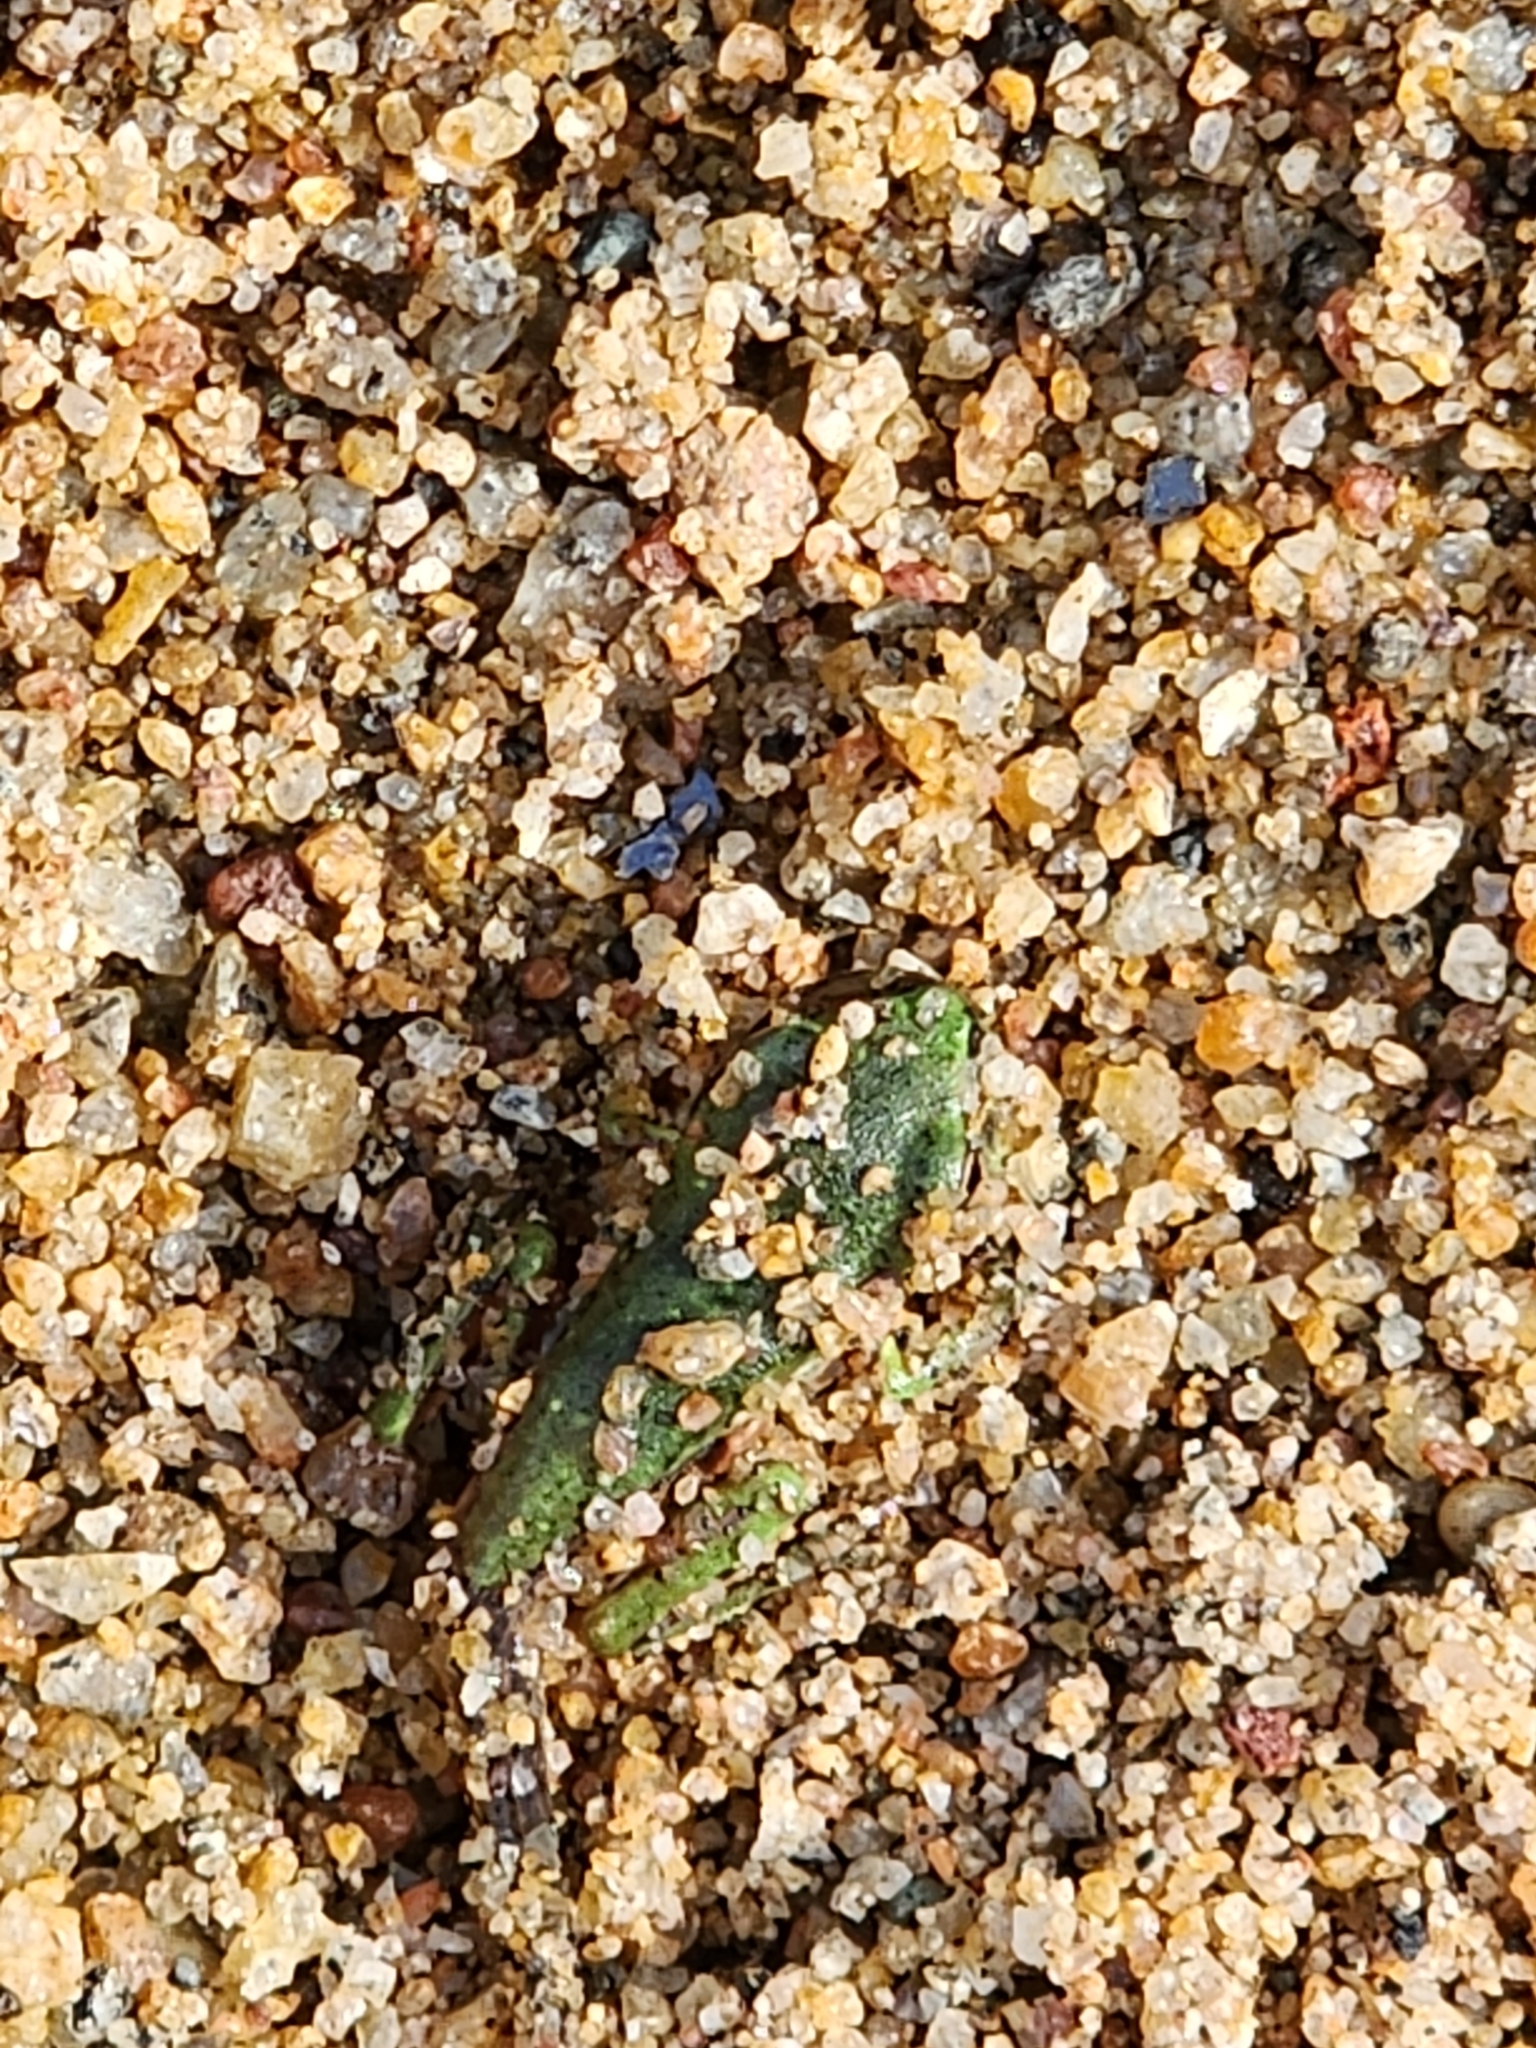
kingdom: Animalia
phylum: Chordata
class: Amphibia
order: Anura
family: Pelodryadidae
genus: Ranoidea
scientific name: Ranoidea caerulea
